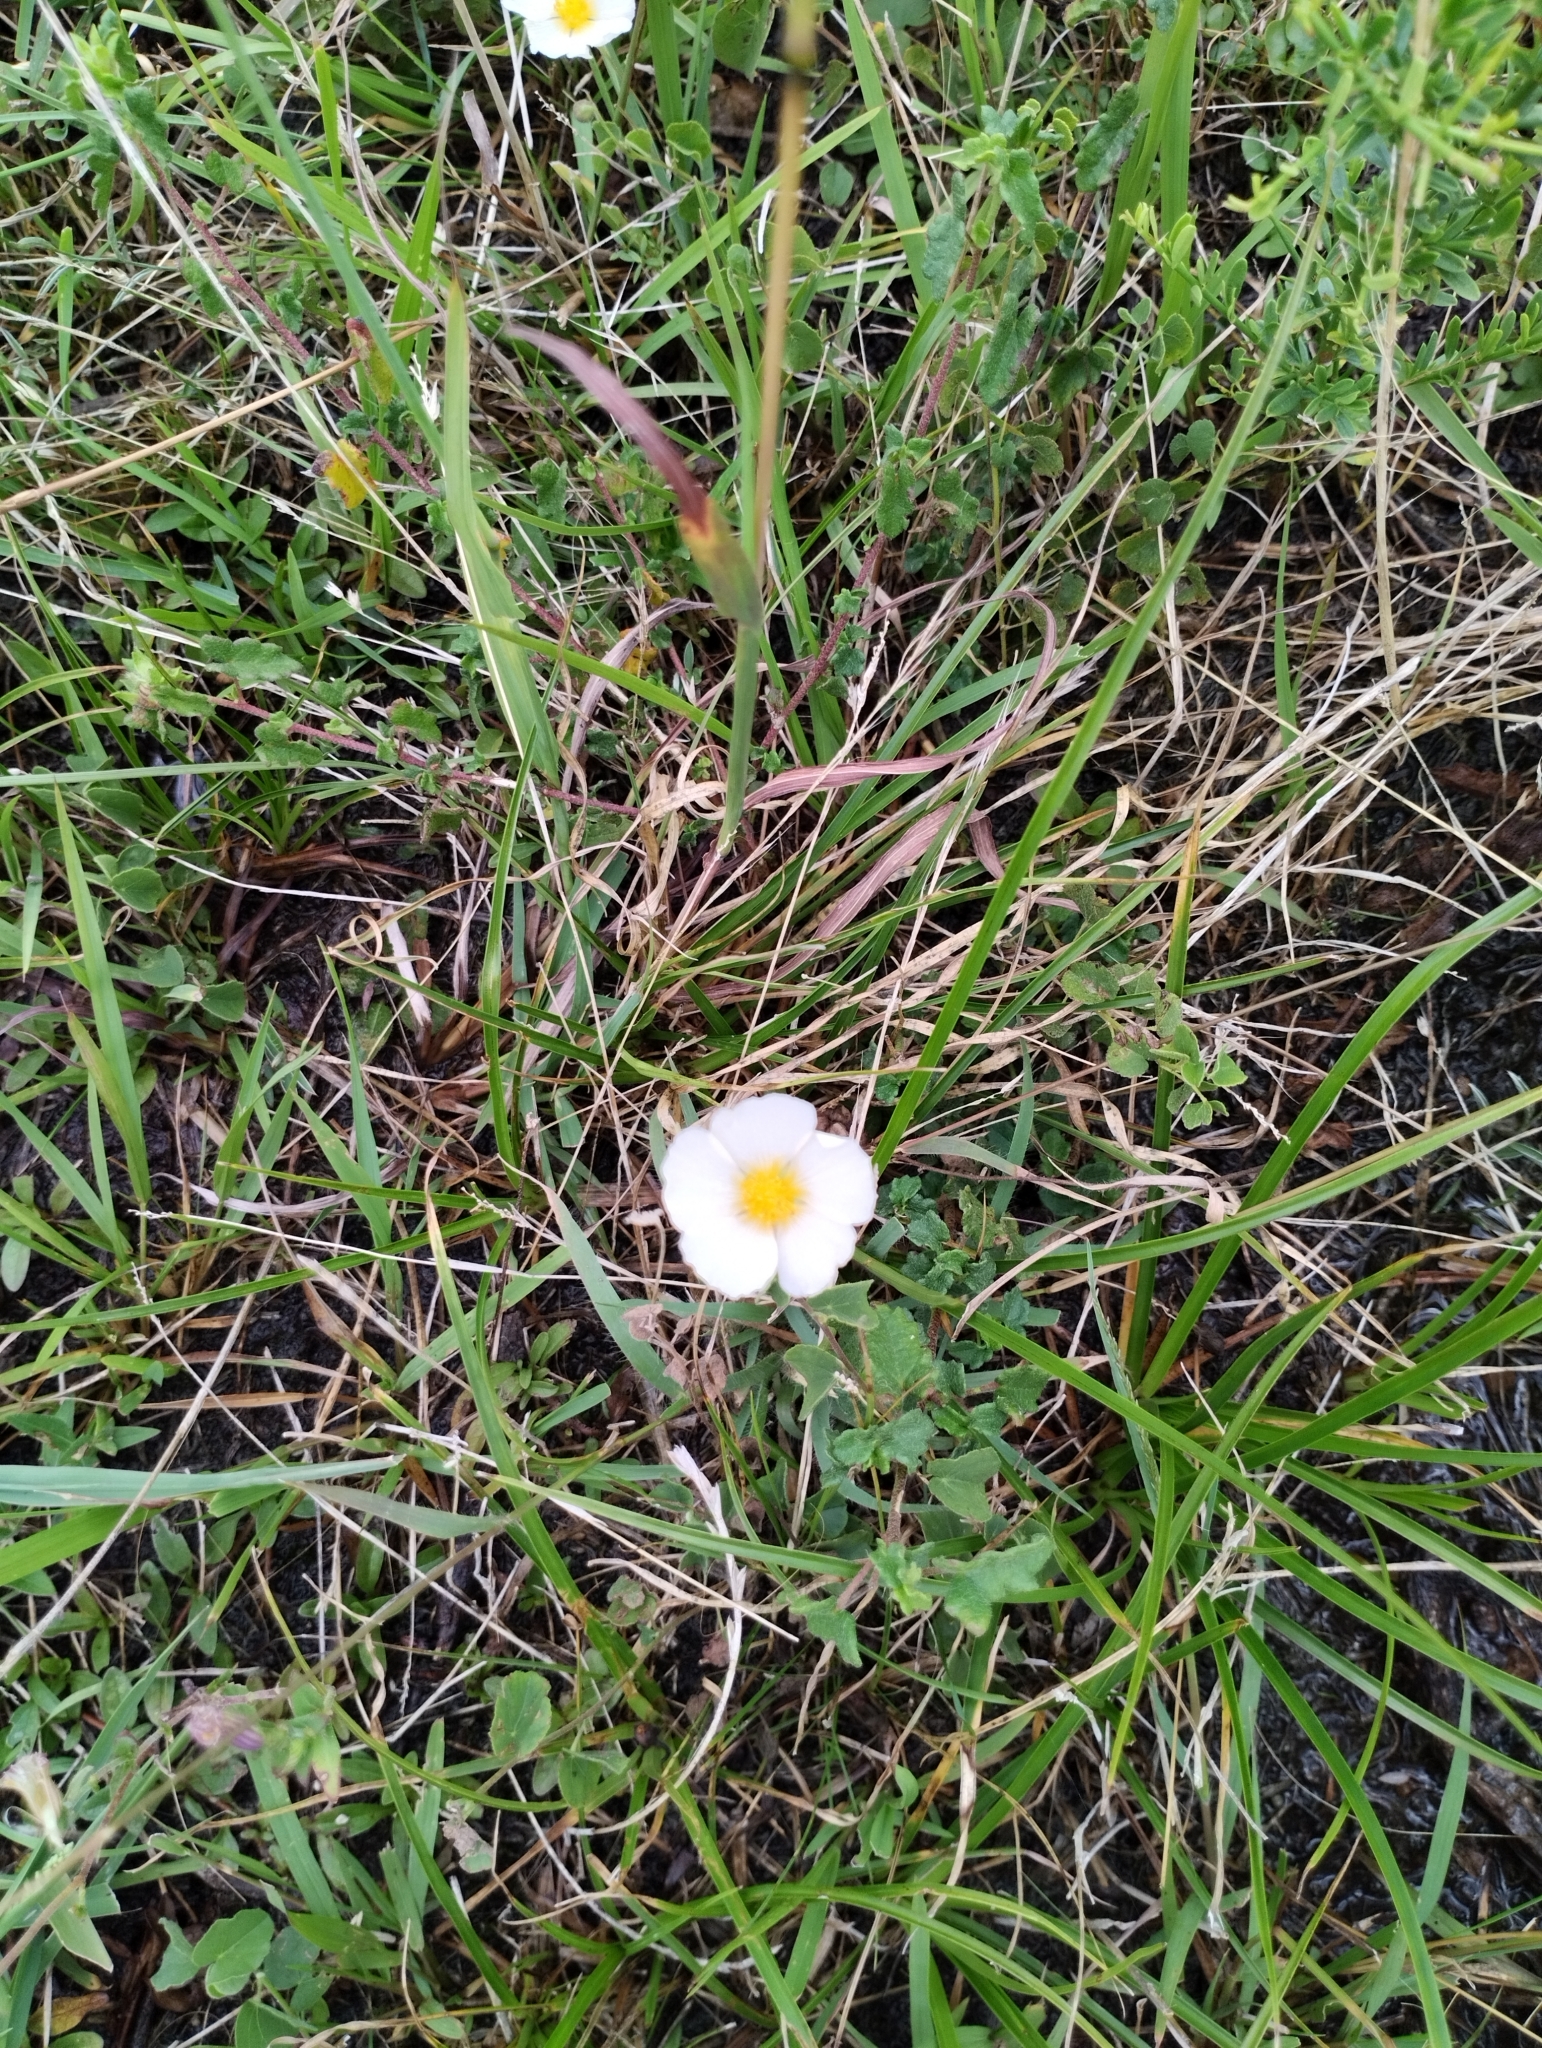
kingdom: Plantae
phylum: Tracheophyta
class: Magnoliopsida
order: Malvales
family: Malvaceae
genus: Wissadula
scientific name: Wissadula glechomifolia
